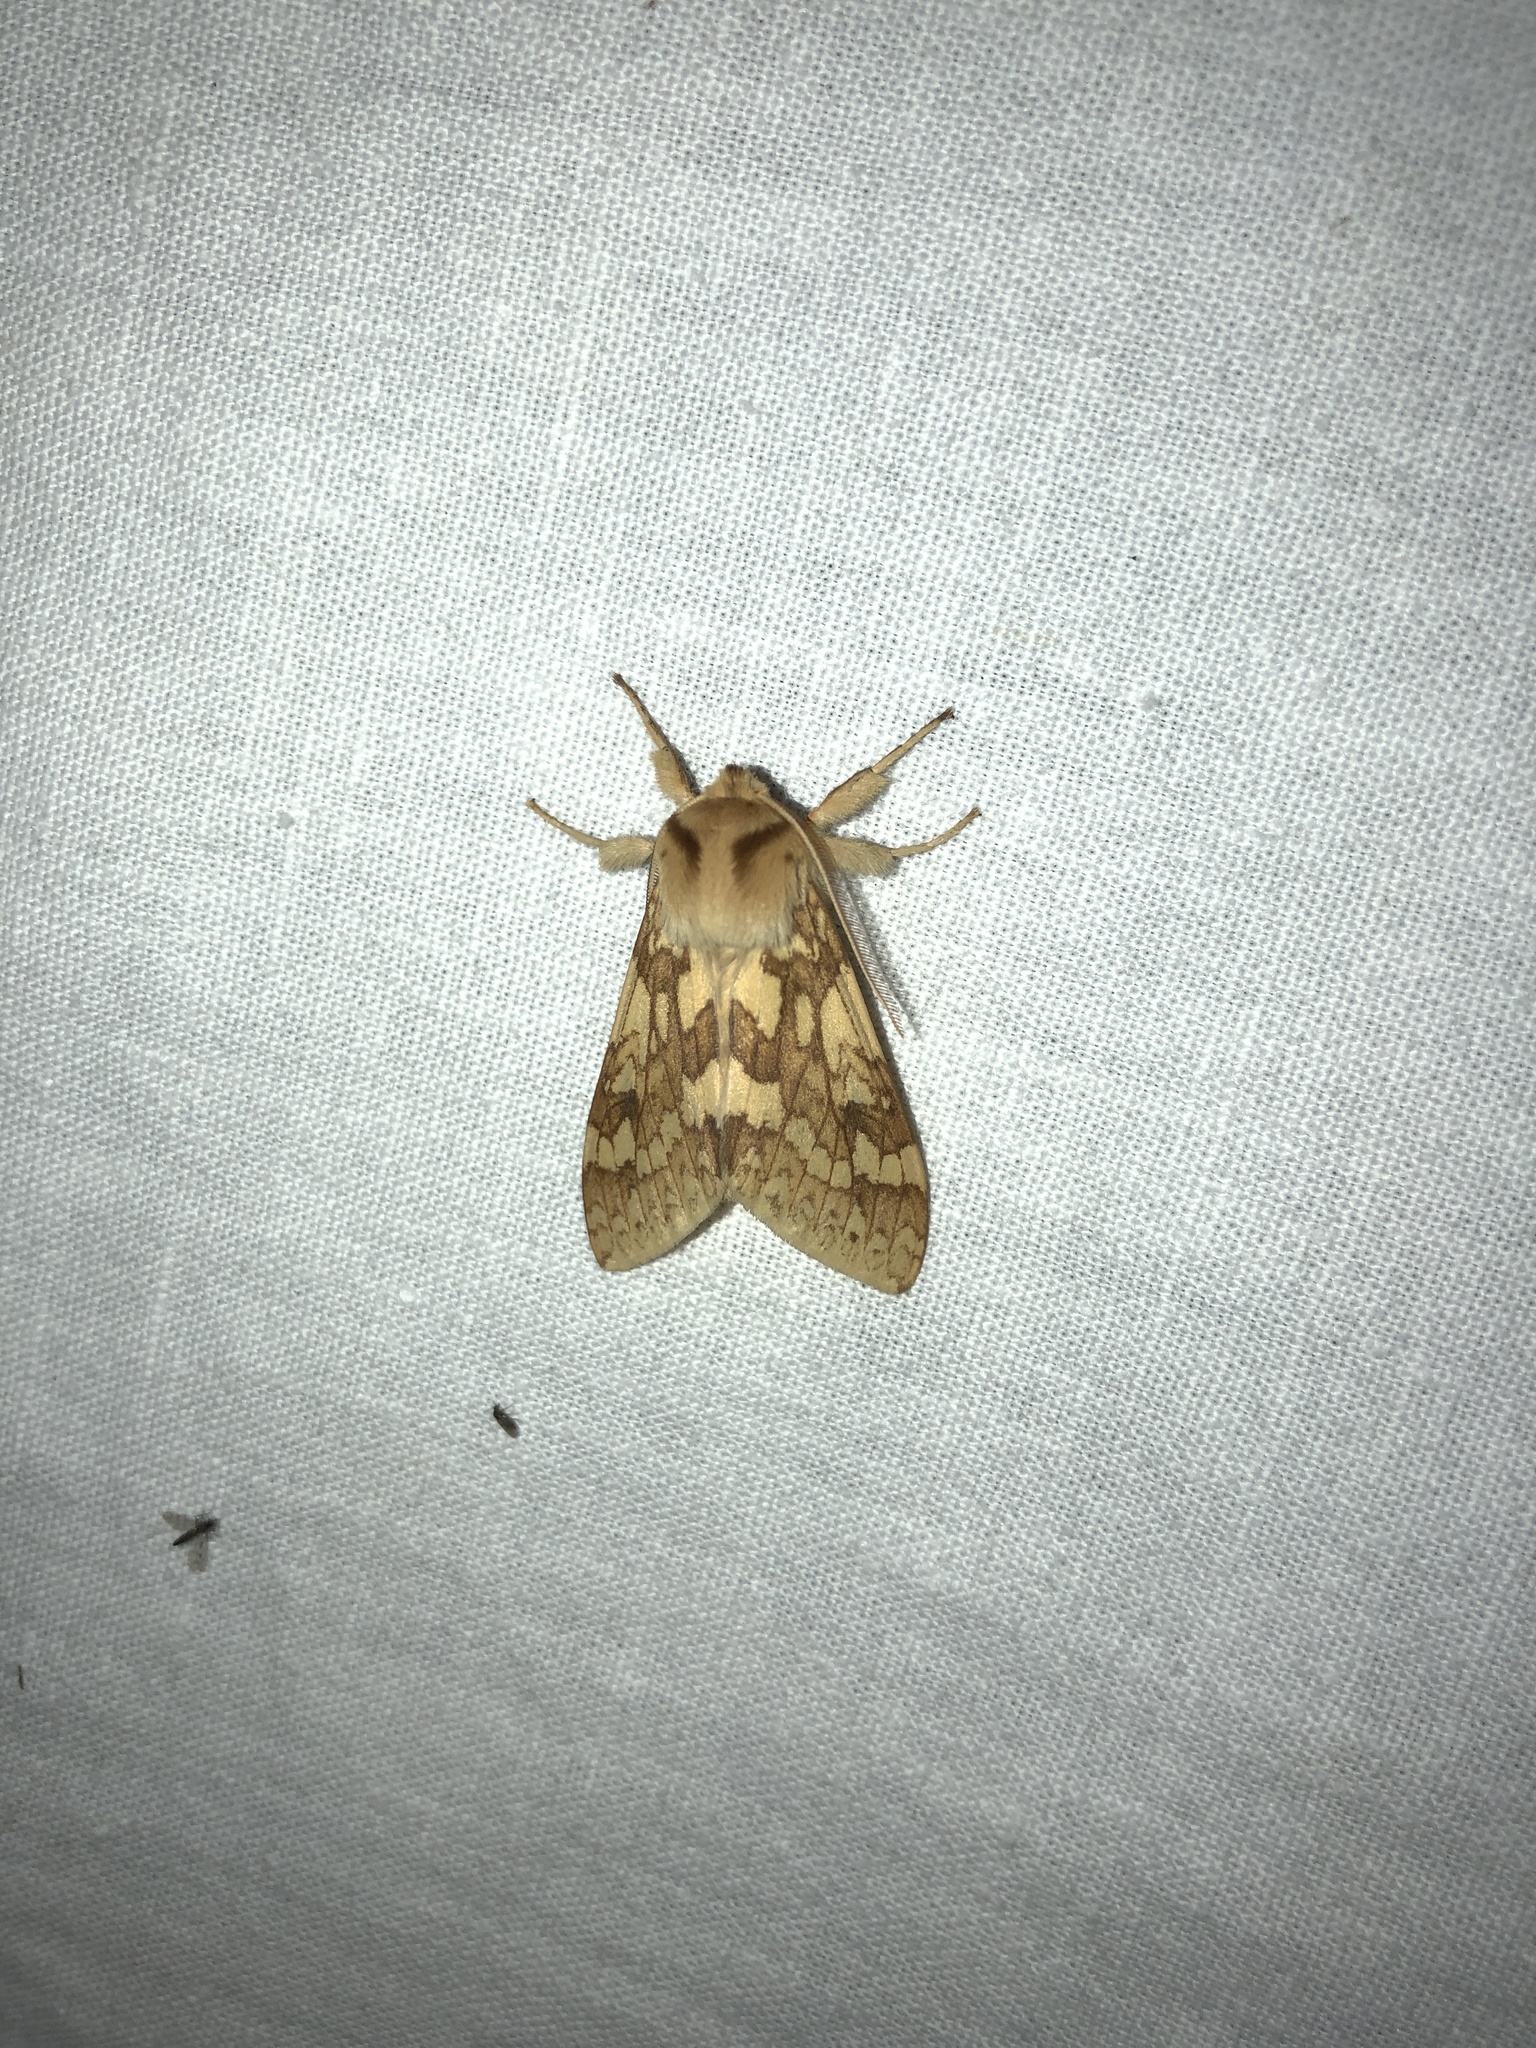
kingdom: Animalia
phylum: Arthropoda
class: Insecta
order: Lepidoptera
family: Erebidae
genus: Lophocampa
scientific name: Lophocampa maculata
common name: Spotted tussock moth
